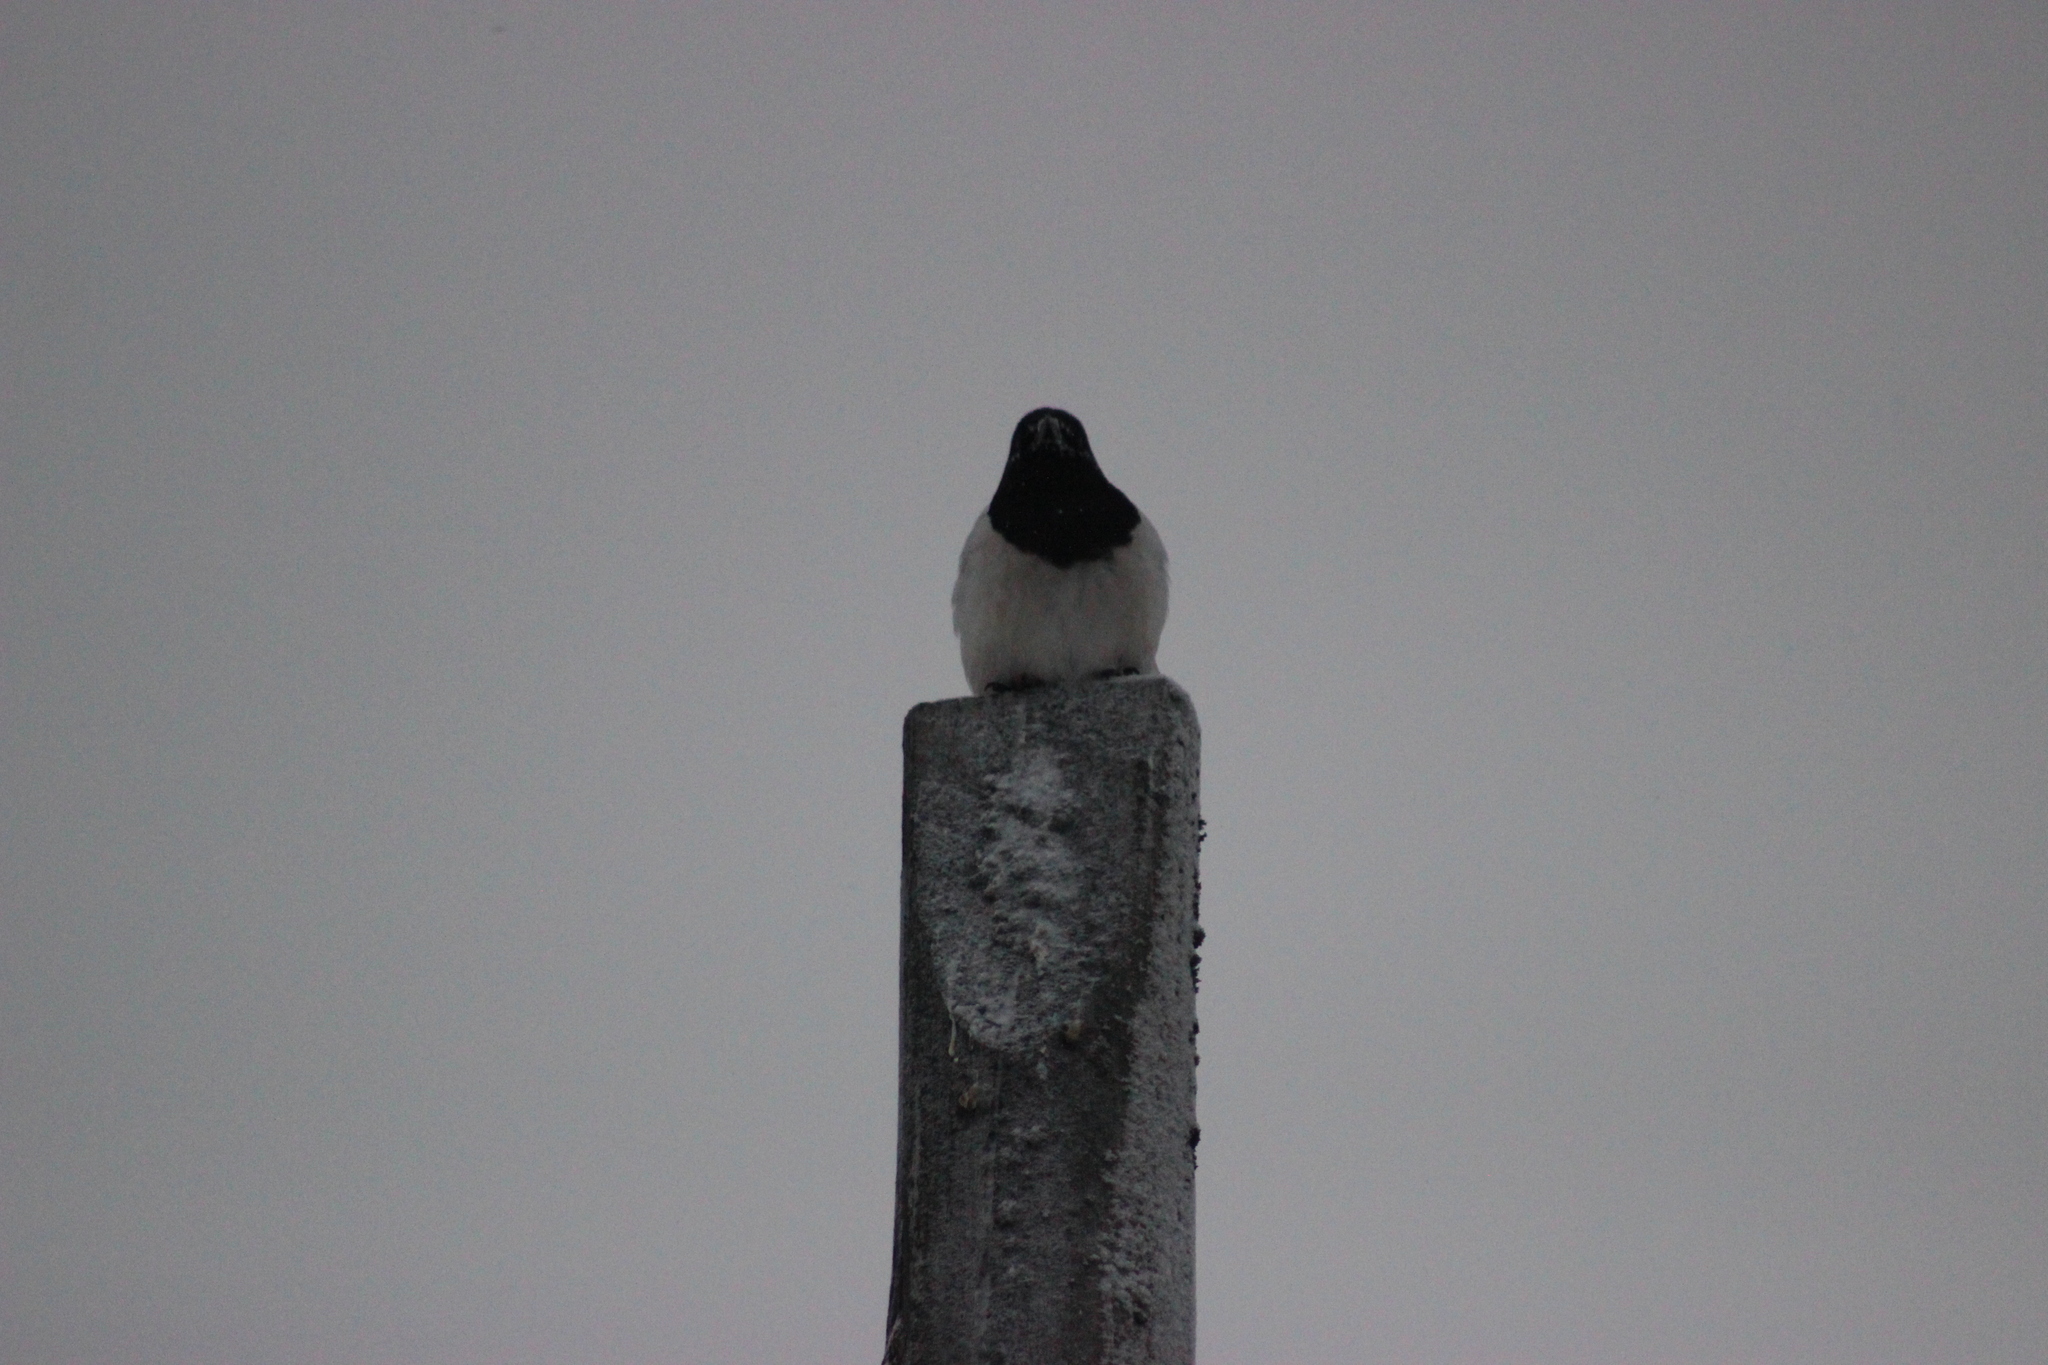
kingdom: Animalia
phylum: Chordata
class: Aves
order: Passeriformes
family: Corvidae
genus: Pica
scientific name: Pica pica
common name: Eurasian magpie
